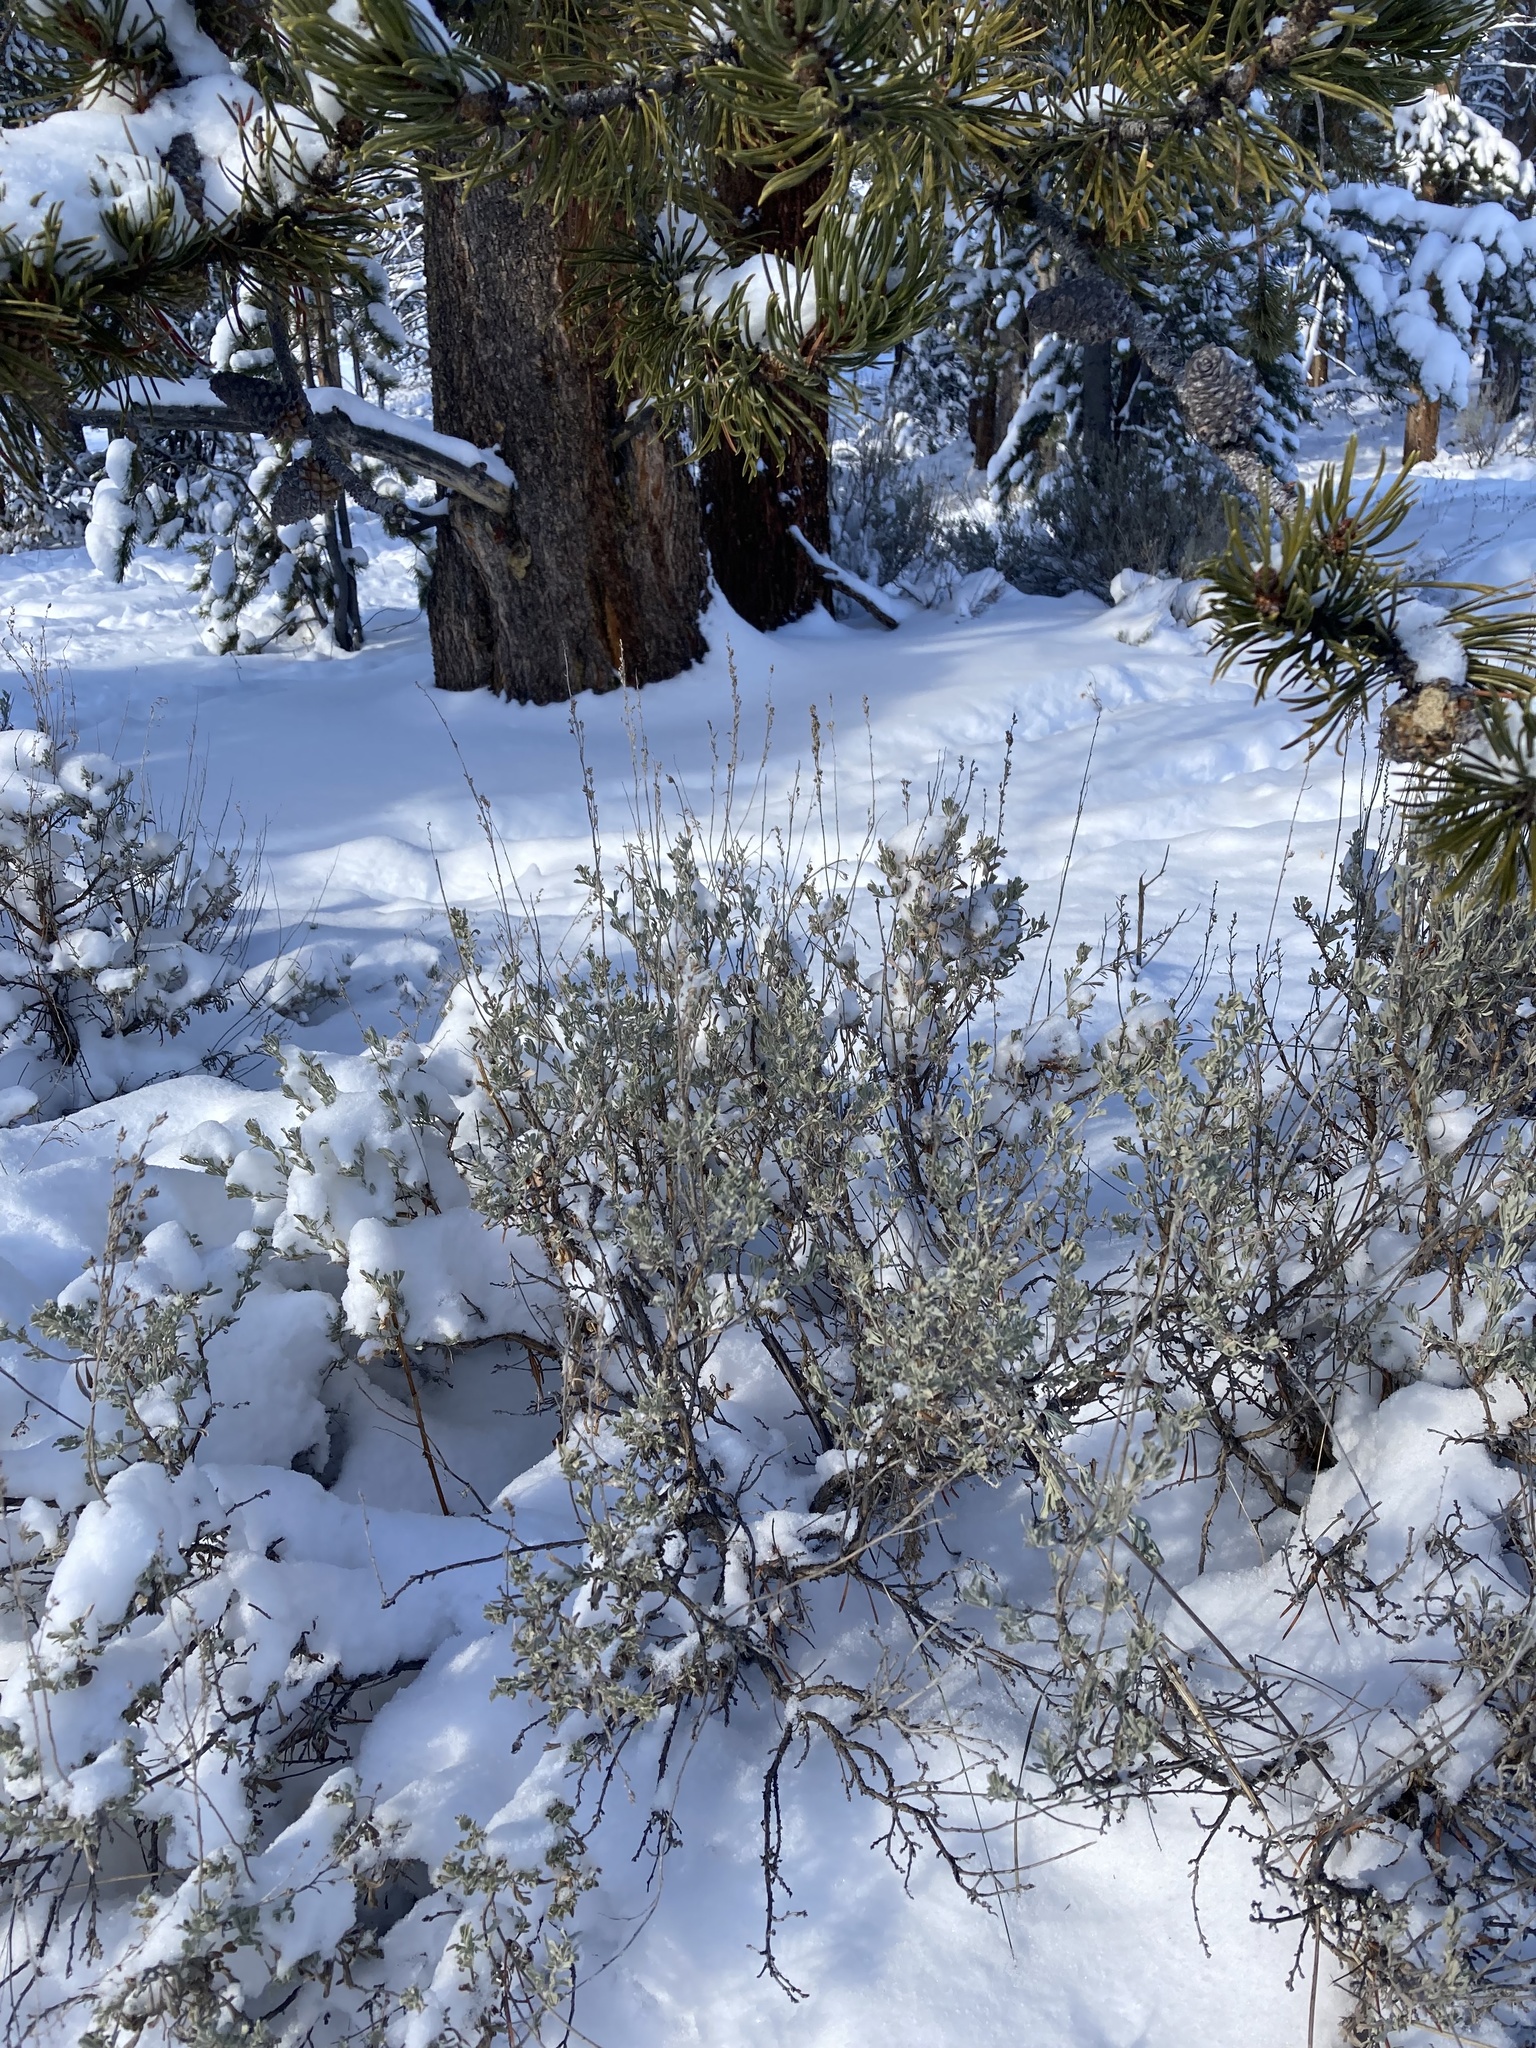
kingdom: Plantae
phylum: Tracheophyta
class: Magnoliopsida
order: Asterales
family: Asteraceae
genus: Artemisia
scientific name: Artemisia tridentata
